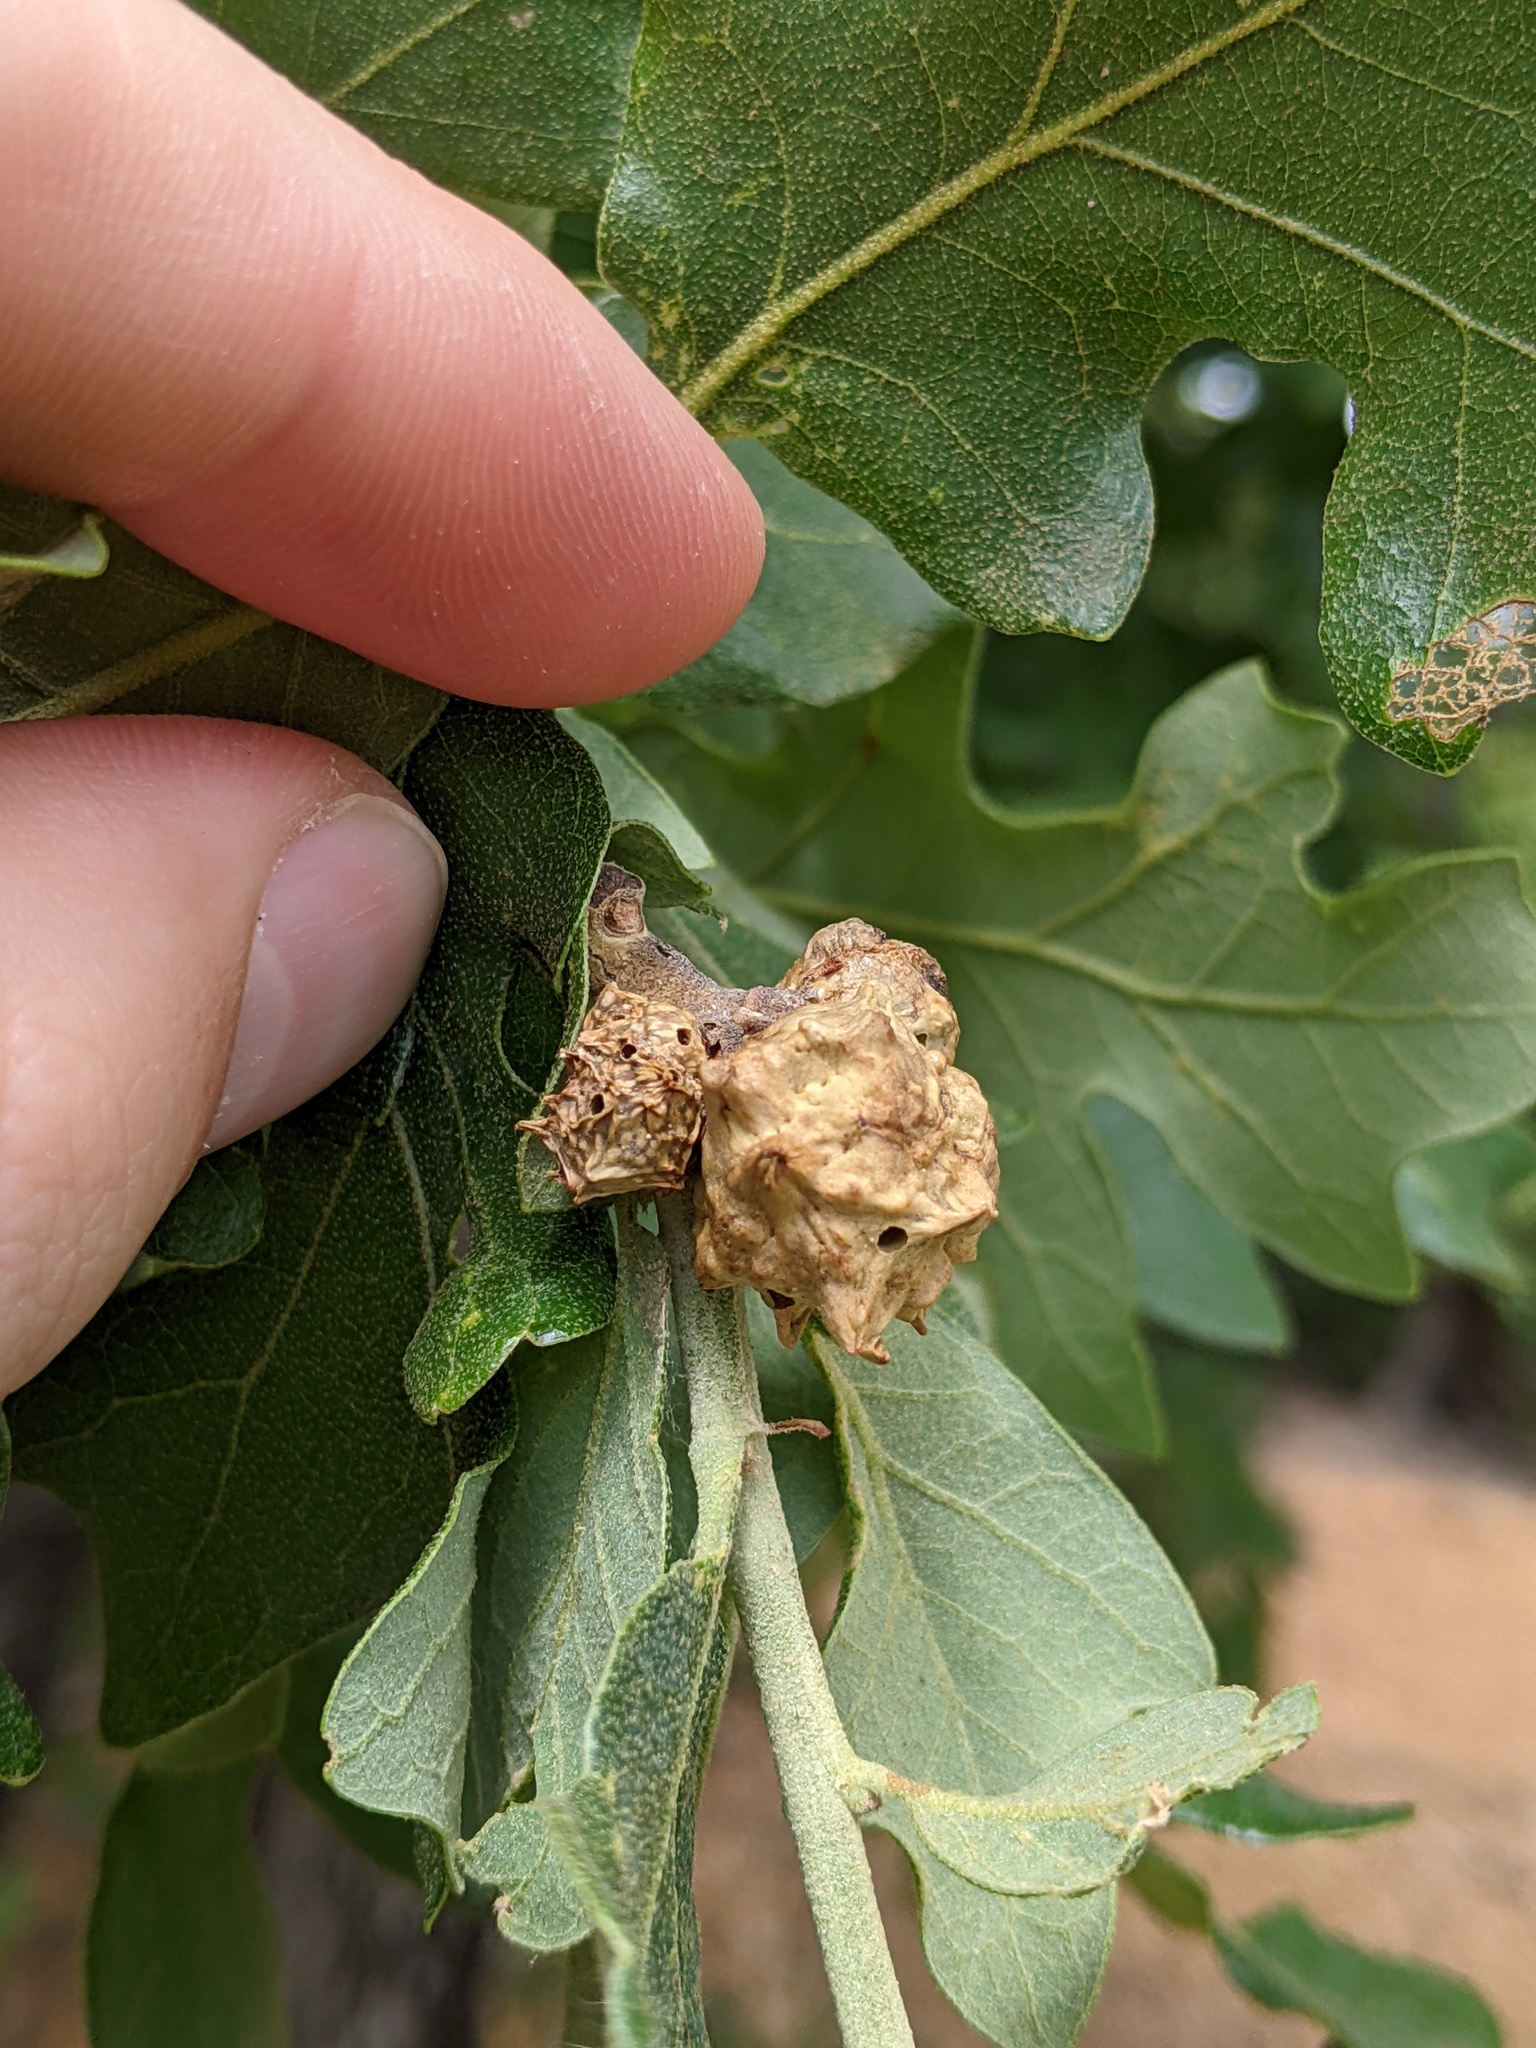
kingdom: Animalia
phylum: Arthropoda
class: Insecta
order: Hymenoptera
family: Cynipidae
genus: Andricus
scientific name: Andricus
